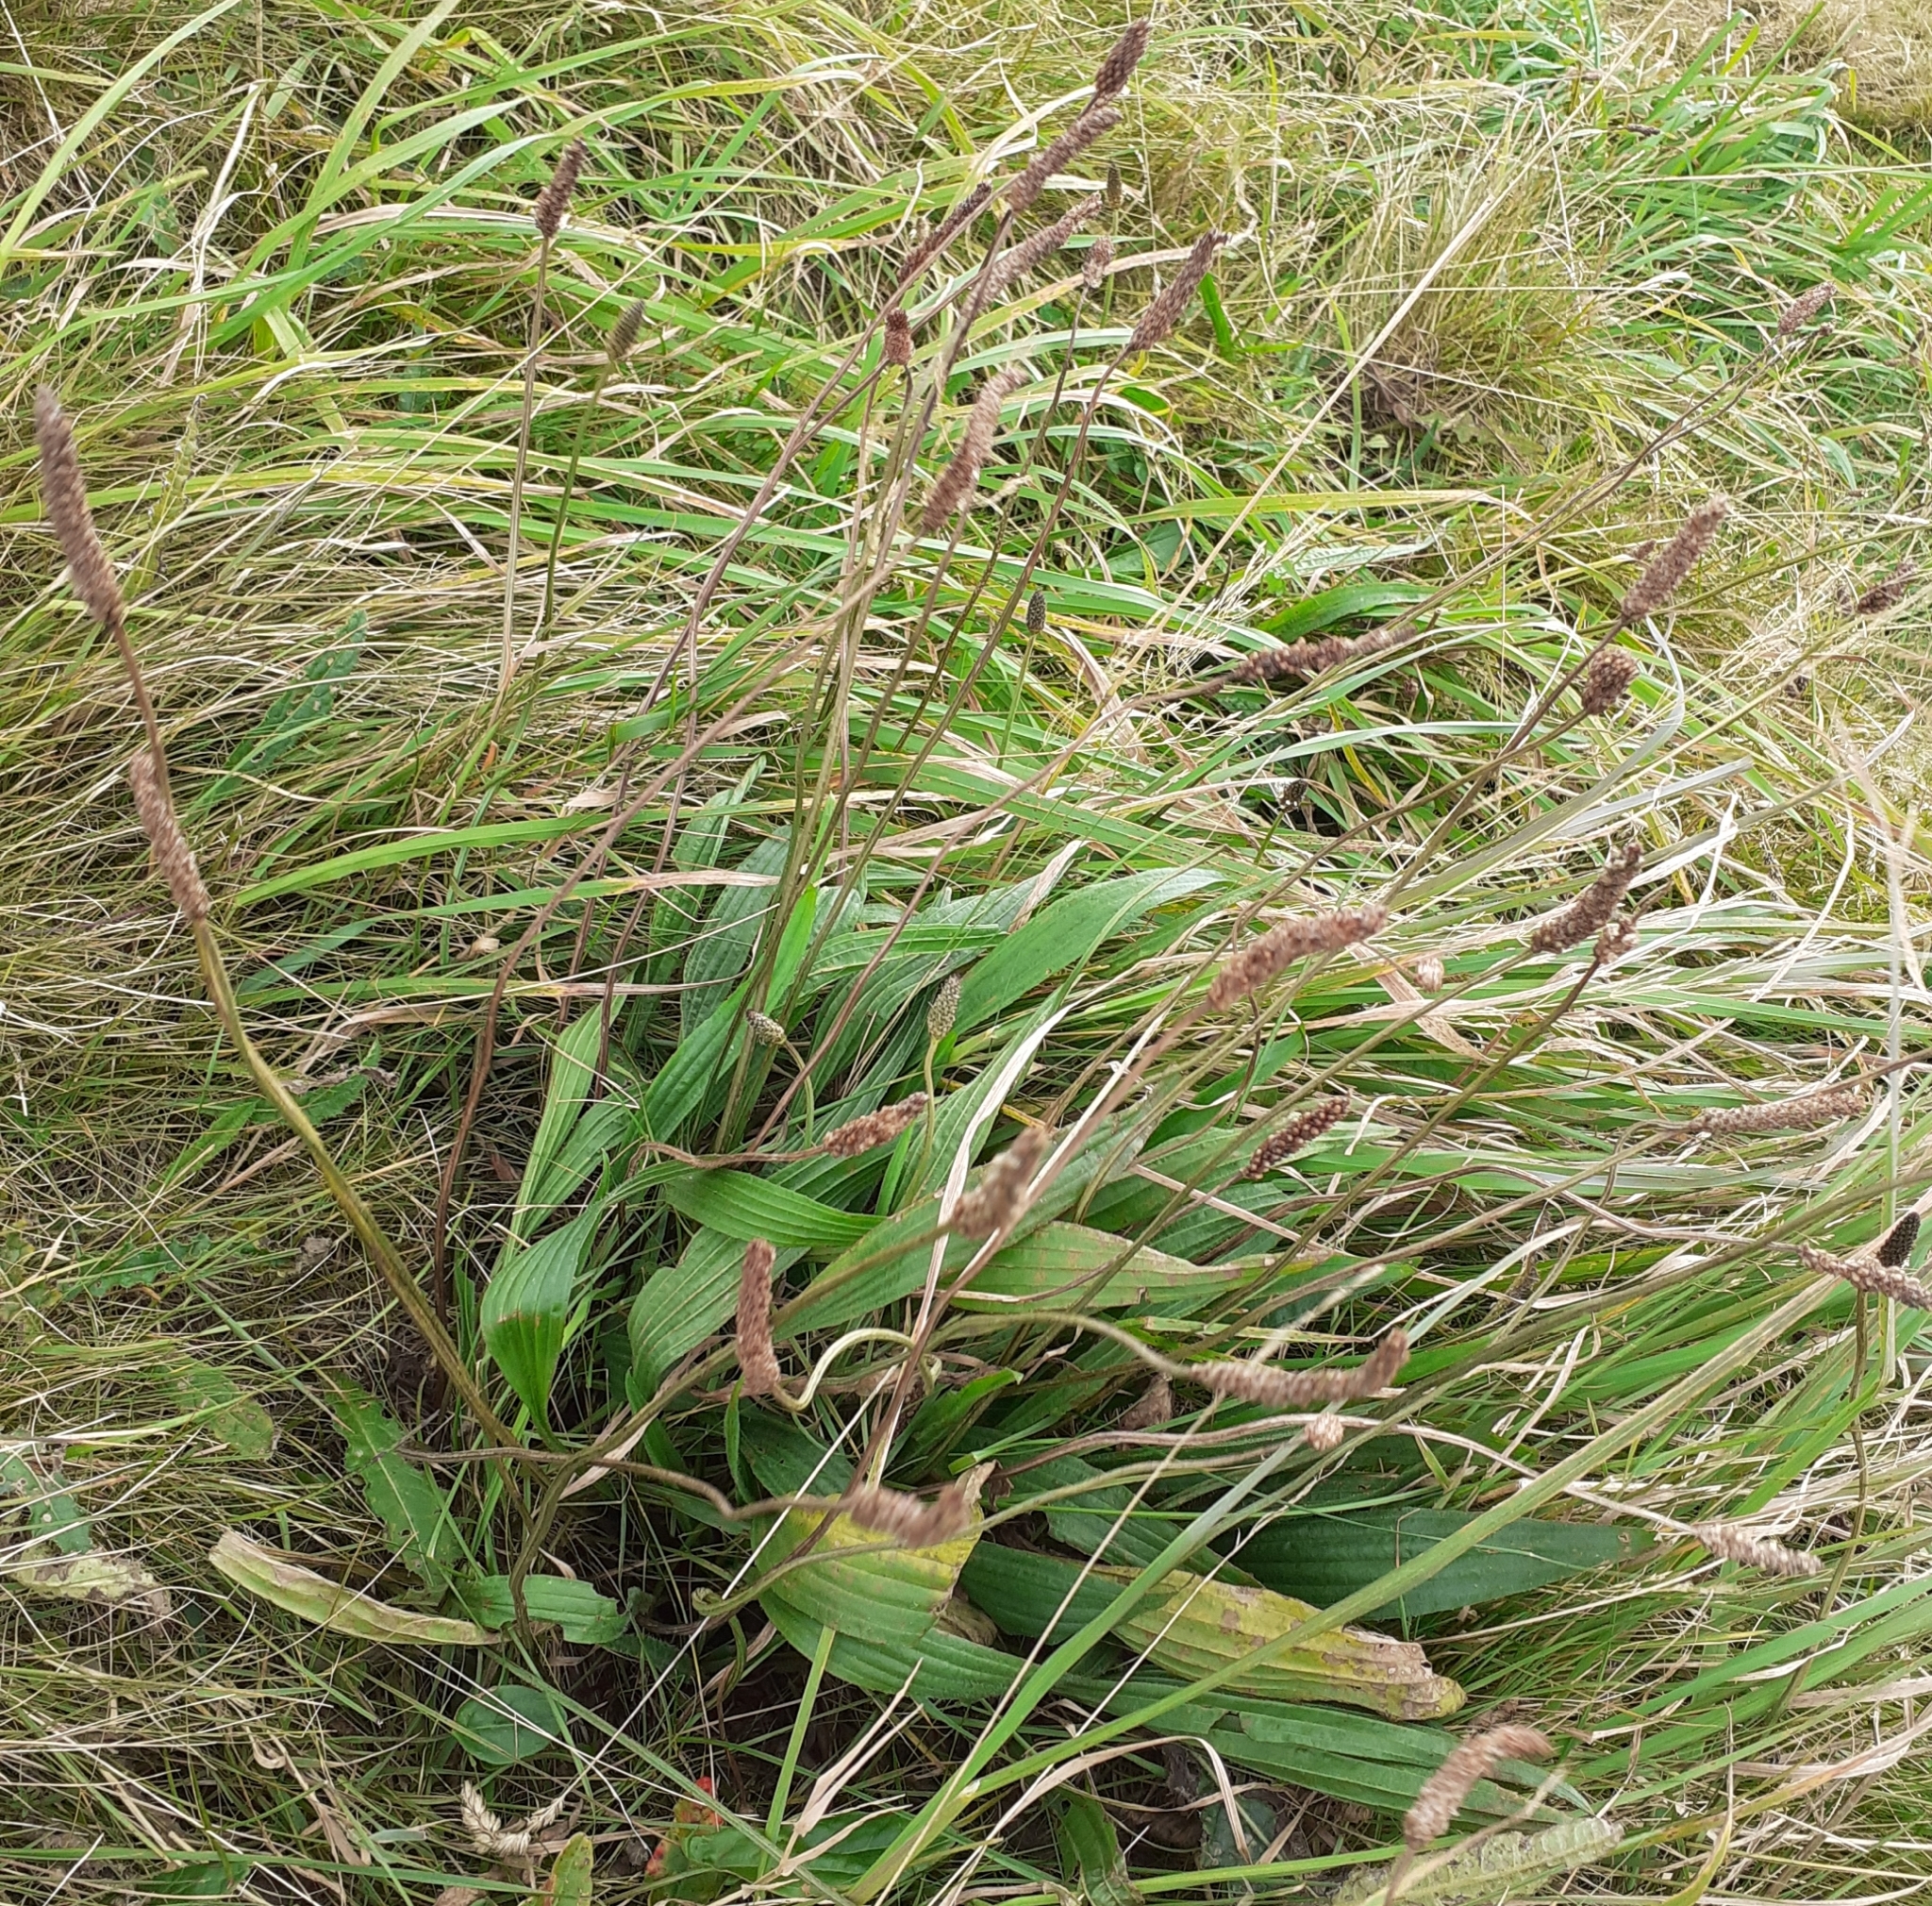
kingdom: Plantae
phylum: Tracheophyta
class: Magnoliopsida
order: Lamiales
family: Plantaginaceae
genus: Plantago
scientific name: Plantago lanceolata
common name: Ribwort plantain
